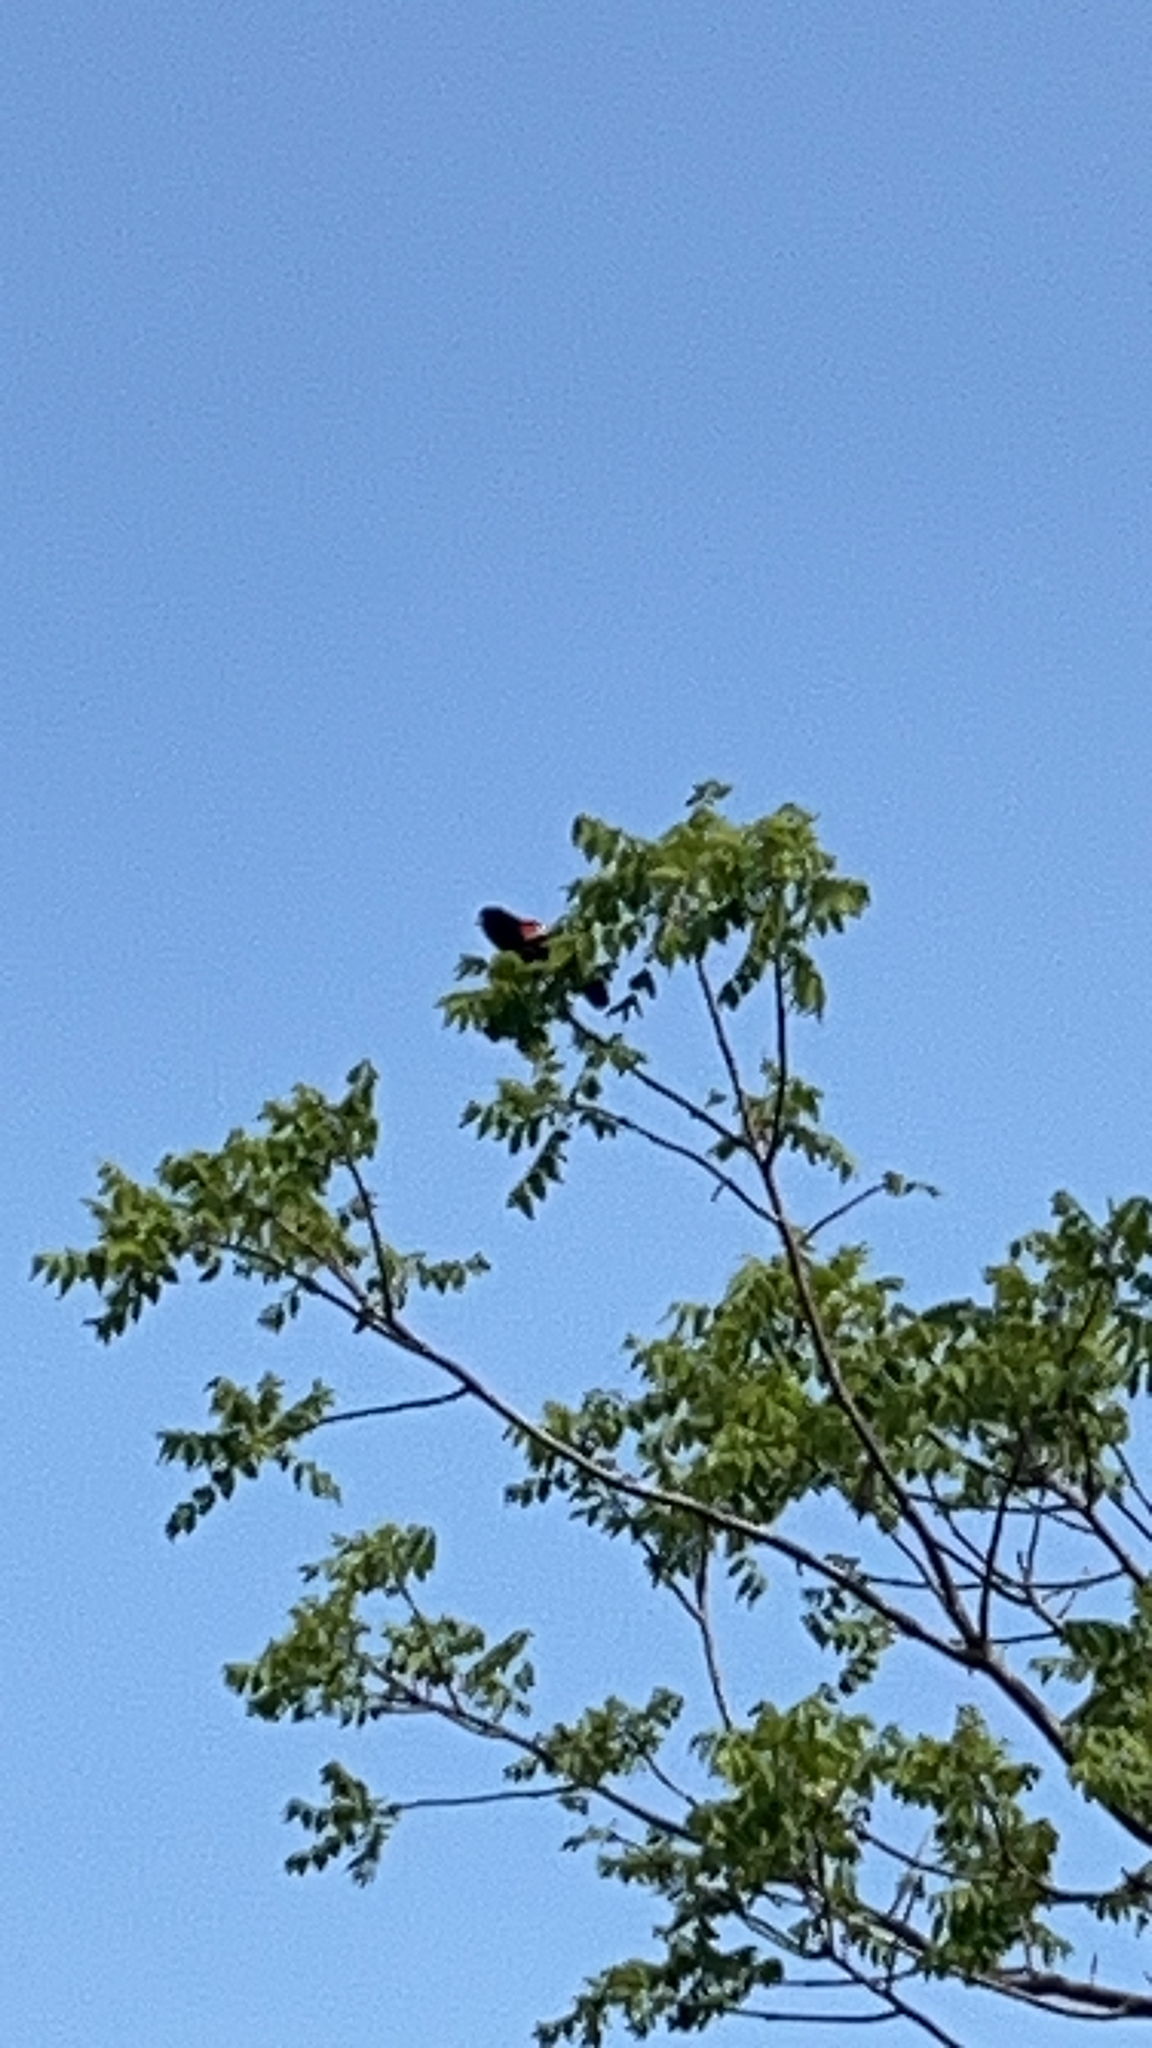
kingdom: Animalia
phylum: Chordata
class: Aves
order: Passeriformes
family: Icteridae
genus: Agelaius
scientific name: Agelaius phoeniceus
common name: Red-winged blackbird
